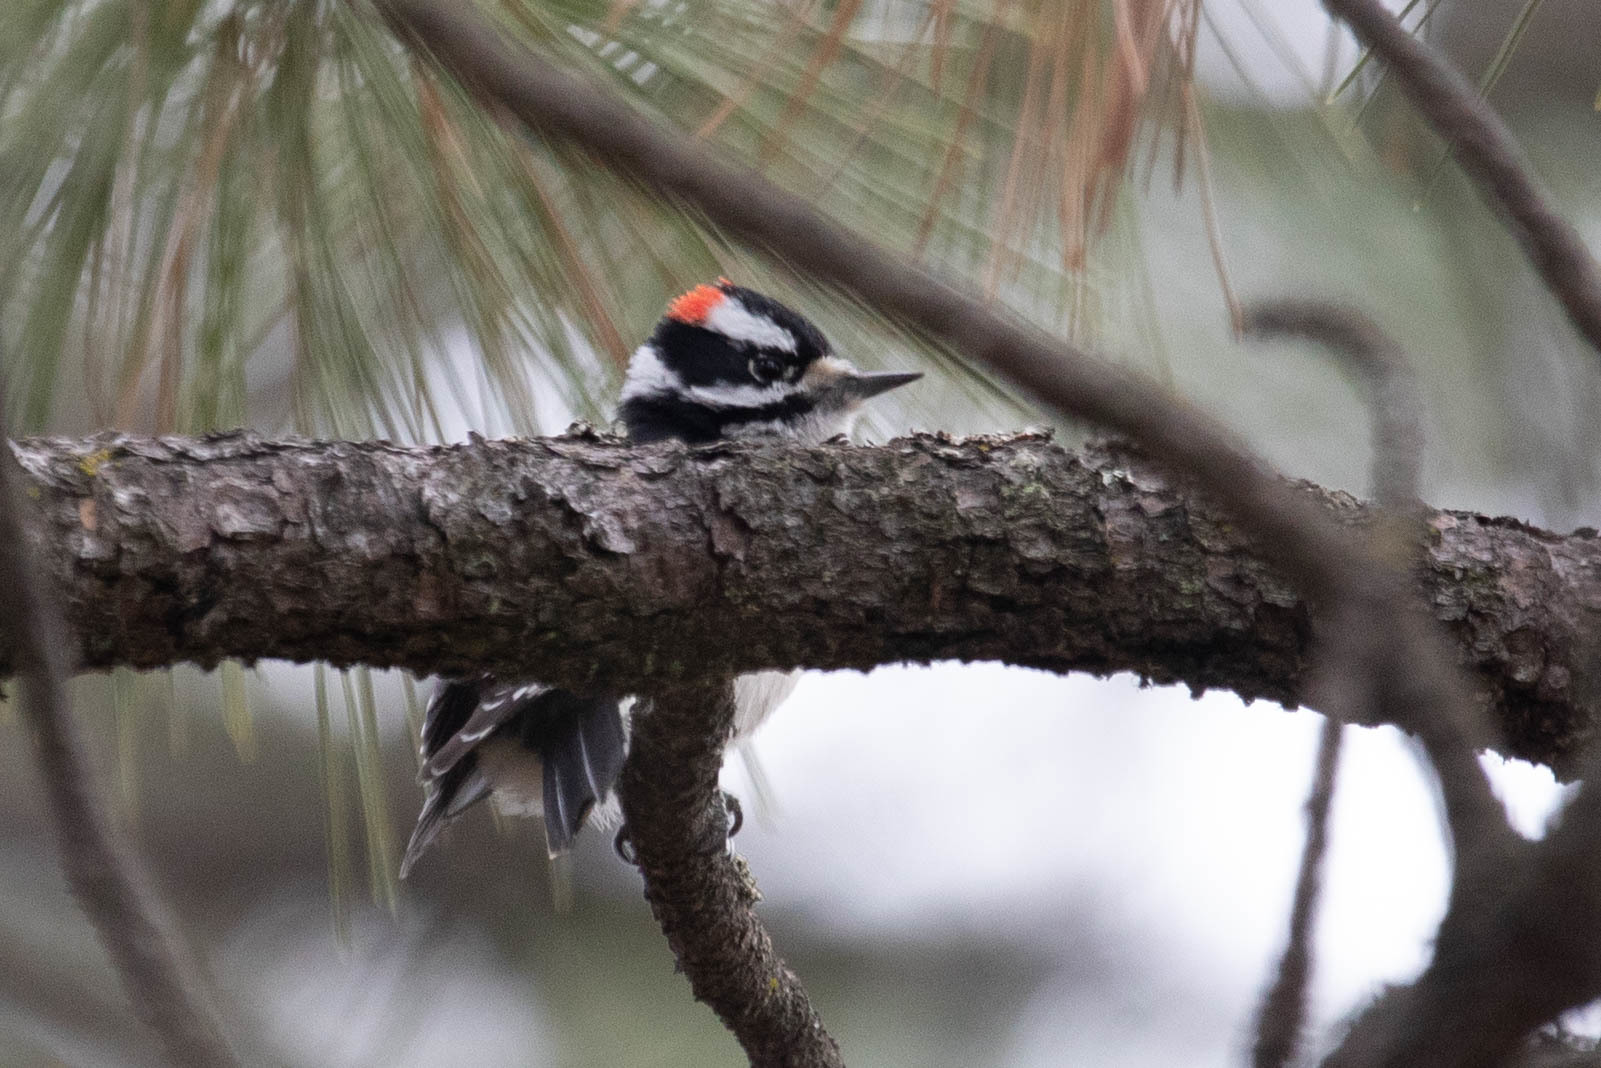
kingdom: Animalia
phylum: Chordata
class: Aves
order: Piciformes
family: Picidae
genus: Dryobates
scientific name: Dryobates pubescens
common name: Downy woodpecker
